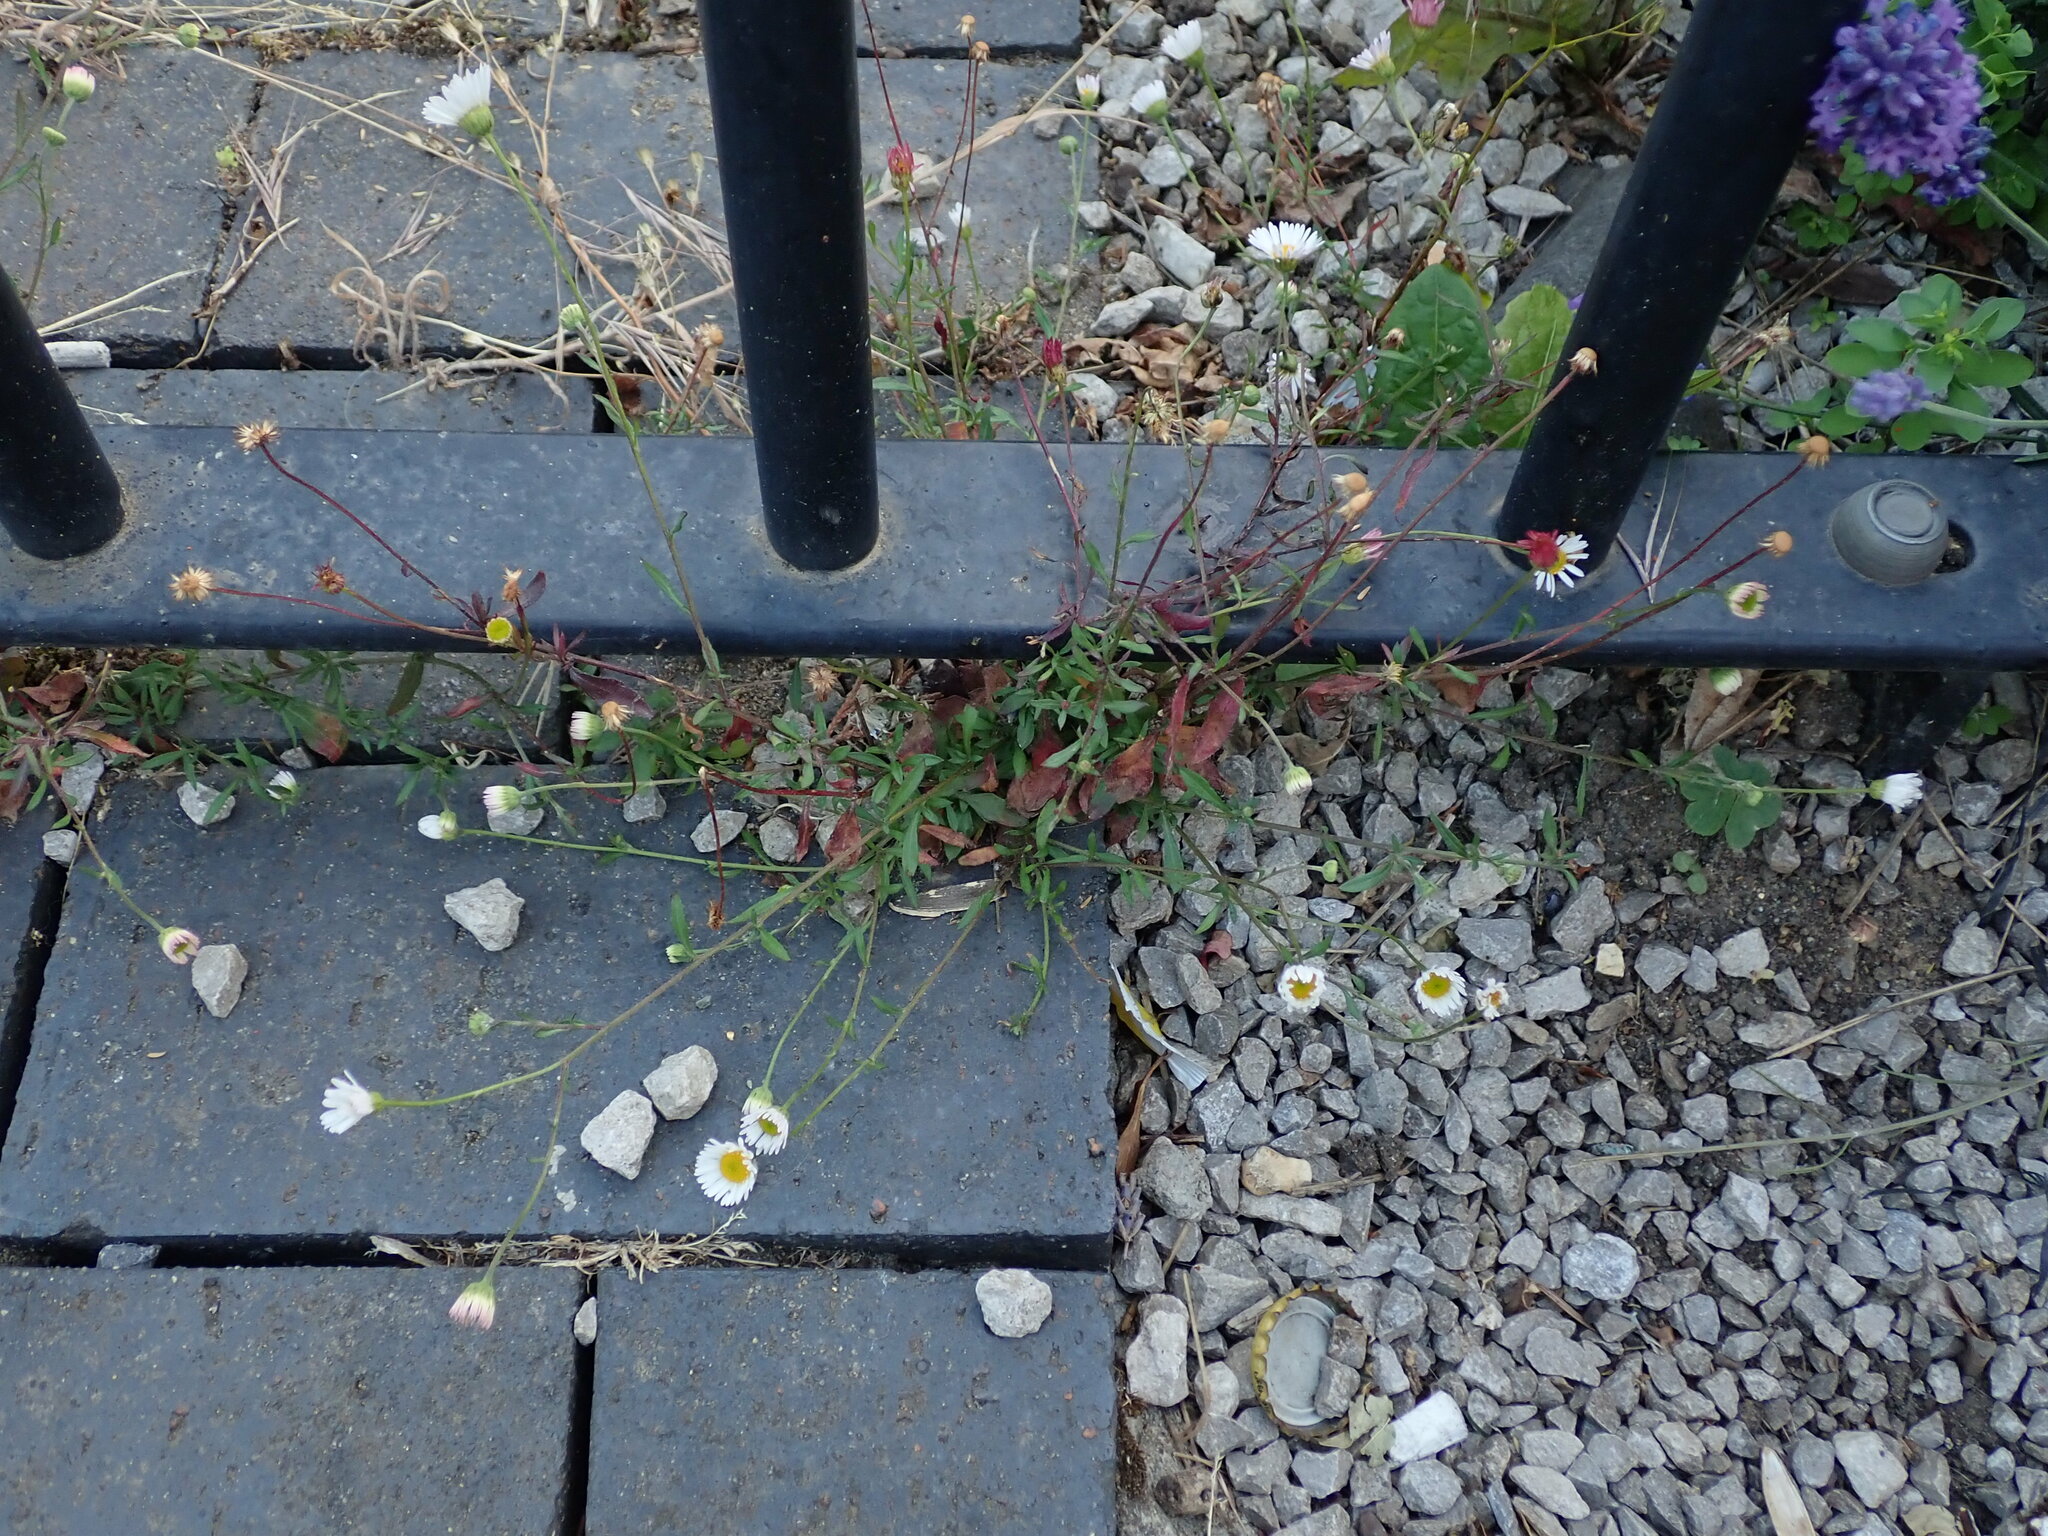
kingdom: Plantae
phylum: Tracheophyta
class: Magnoliopsida
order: Asterales
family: Asteraceae
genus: Erigeron
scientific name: Erigeron karvinskianus
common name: Mexican fleabane
